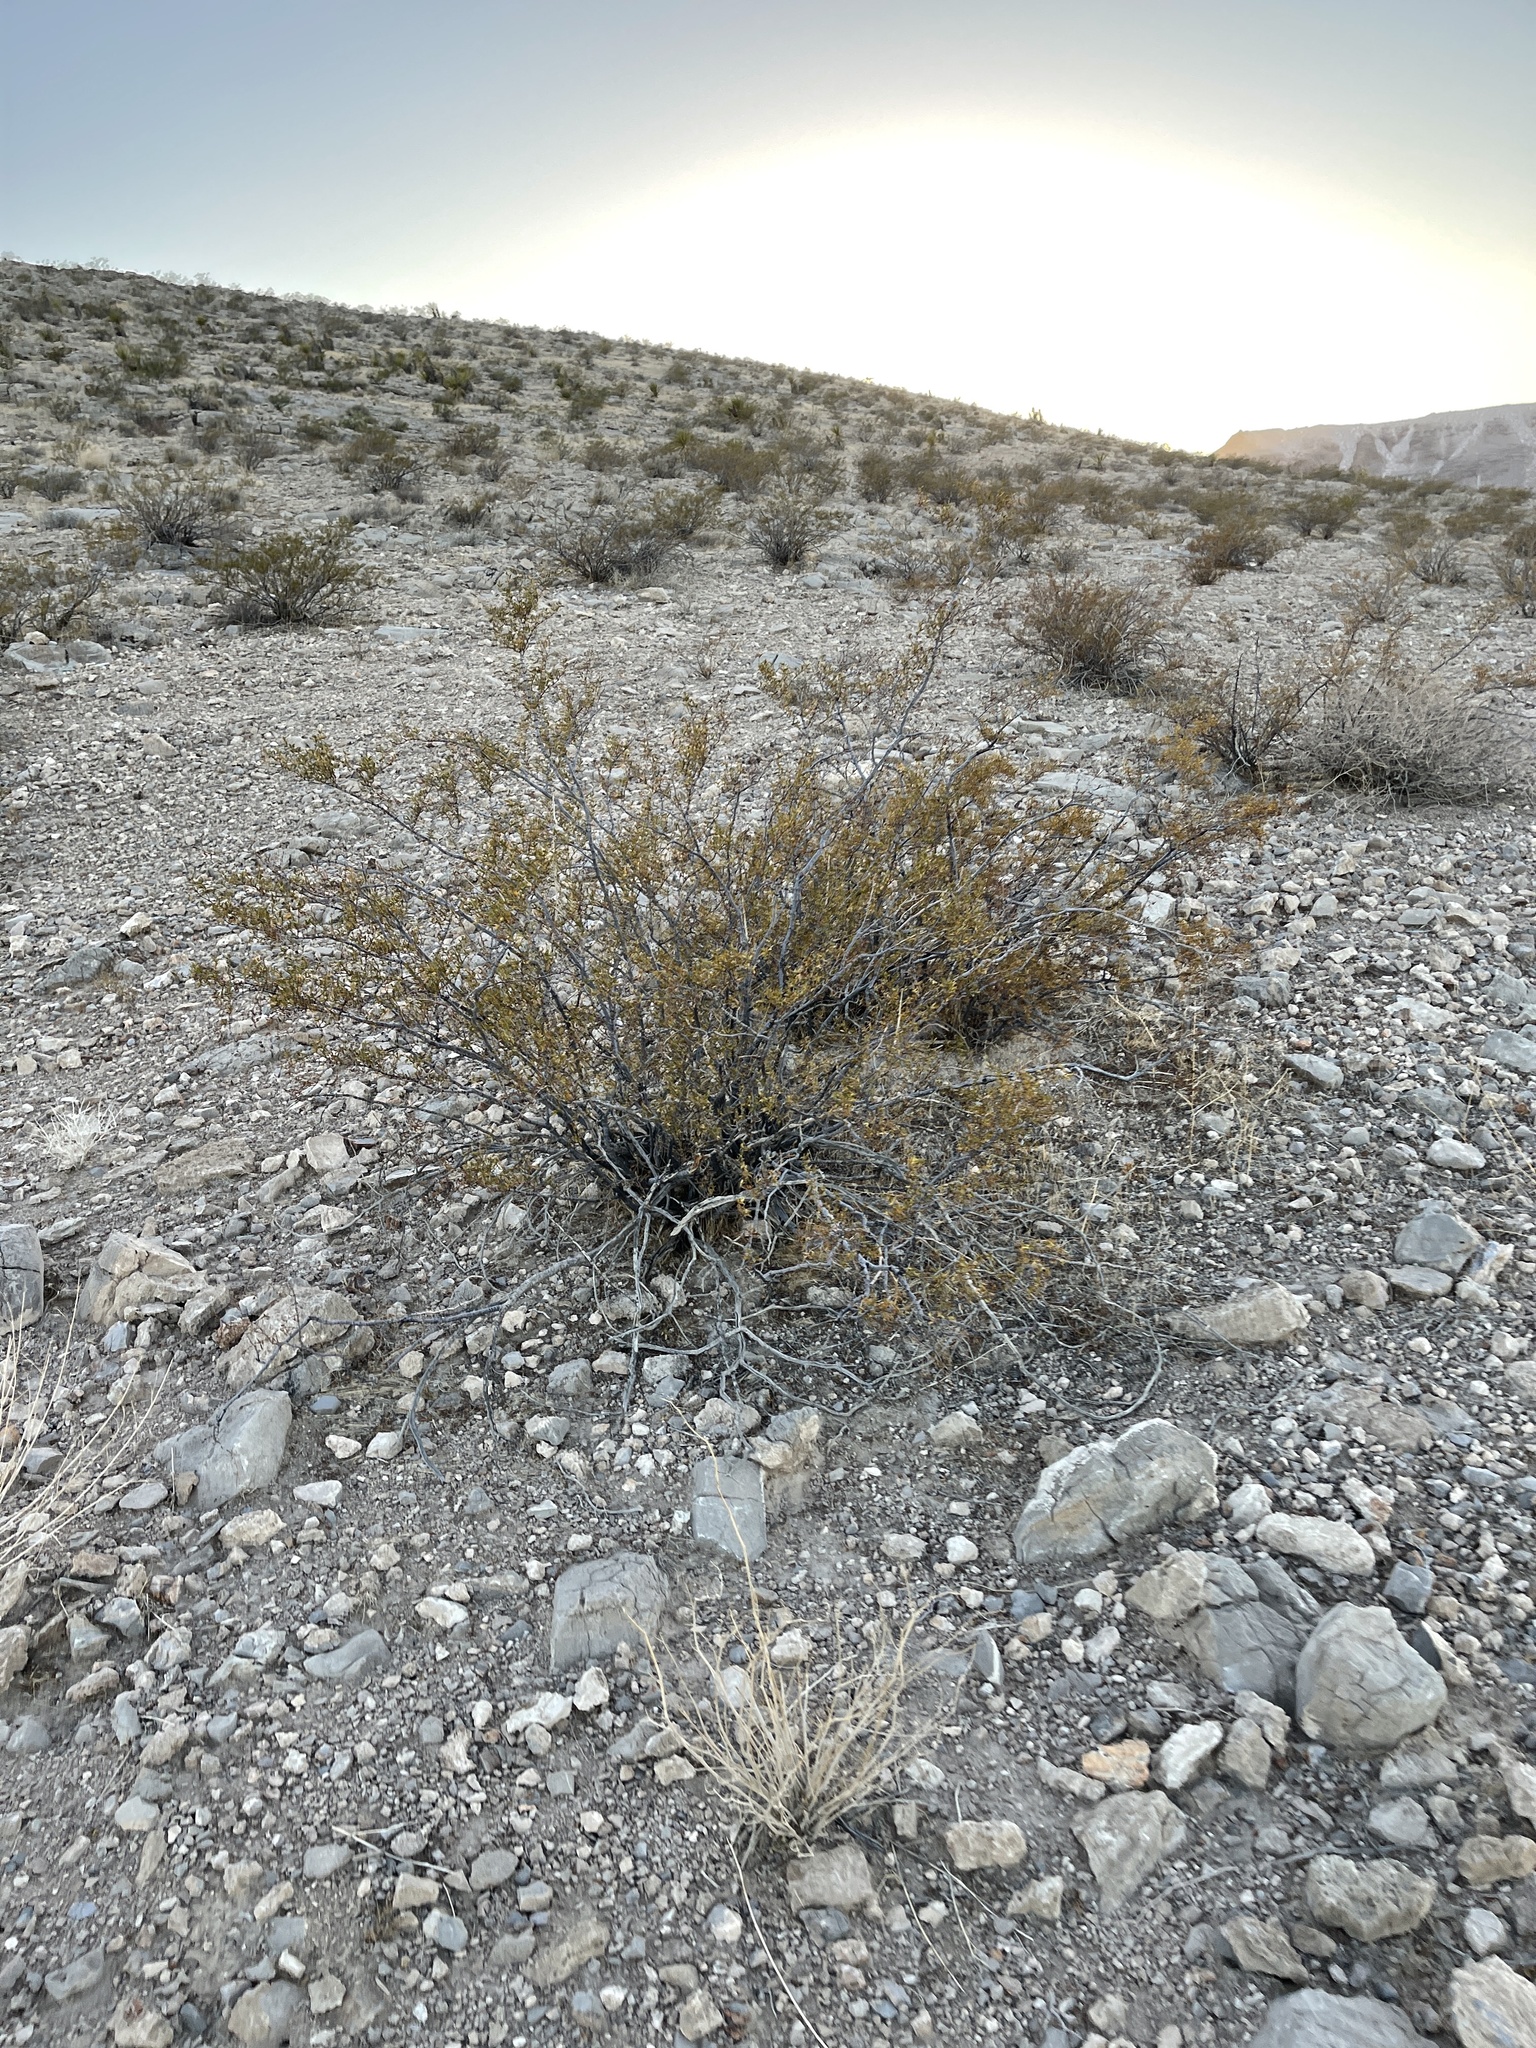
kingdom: Plantae
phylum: Tracheophyta
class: Magnoliopsida
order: Zygophyllales
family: Zygophyllaceae
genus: Larrea
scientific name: Larrea tridentata
